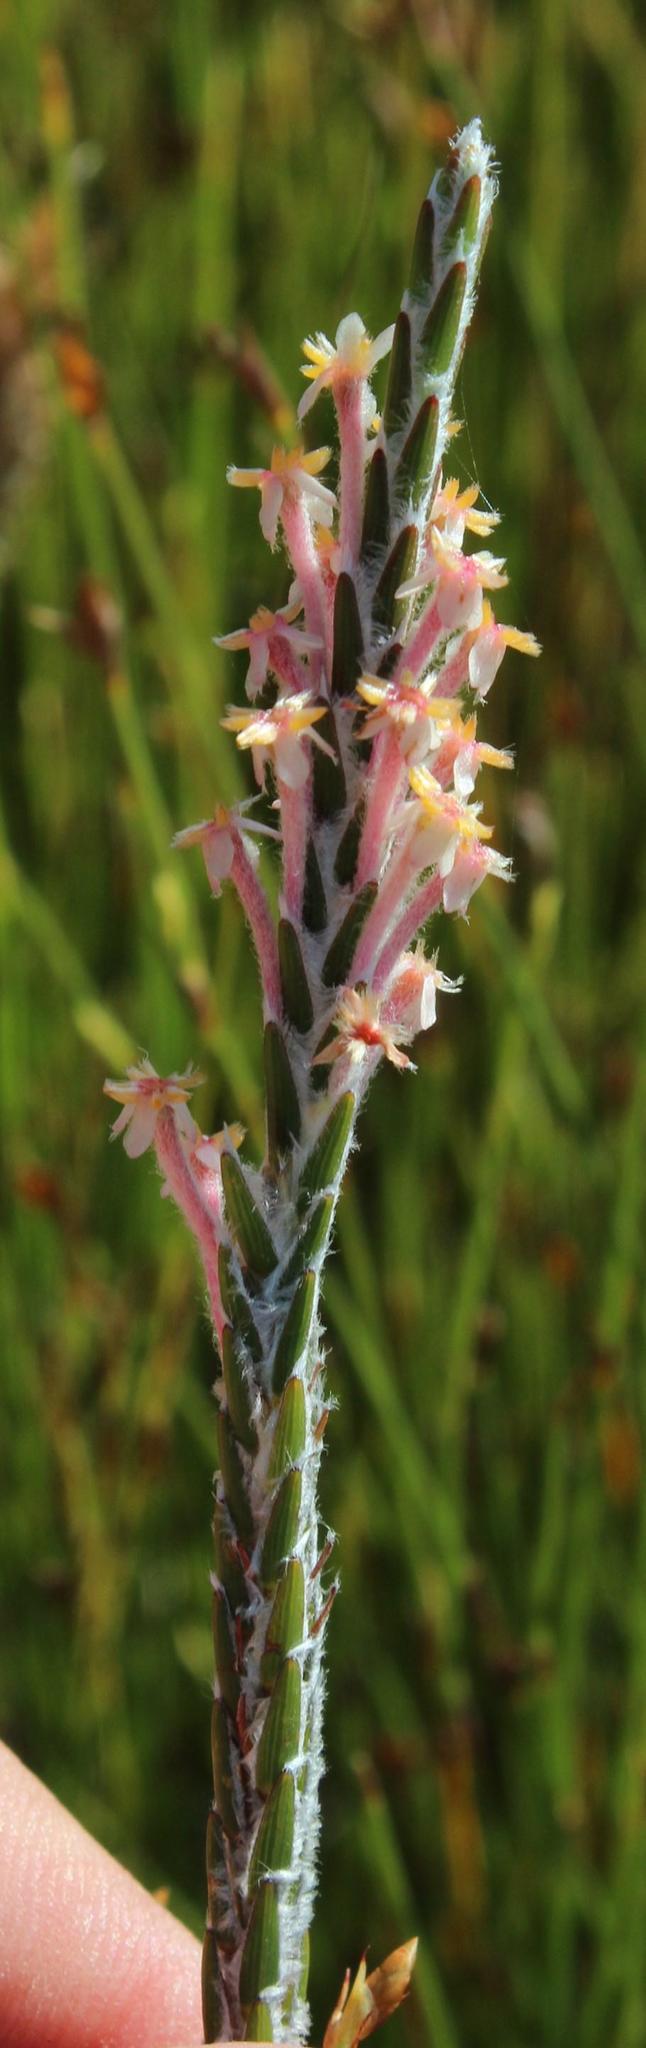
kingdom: Plantae
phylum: Tracheophyta
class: Magnoliopsida
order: Malvales
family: Thymelaeaceae
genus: Struthiola
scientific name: Struthiola ciliata
